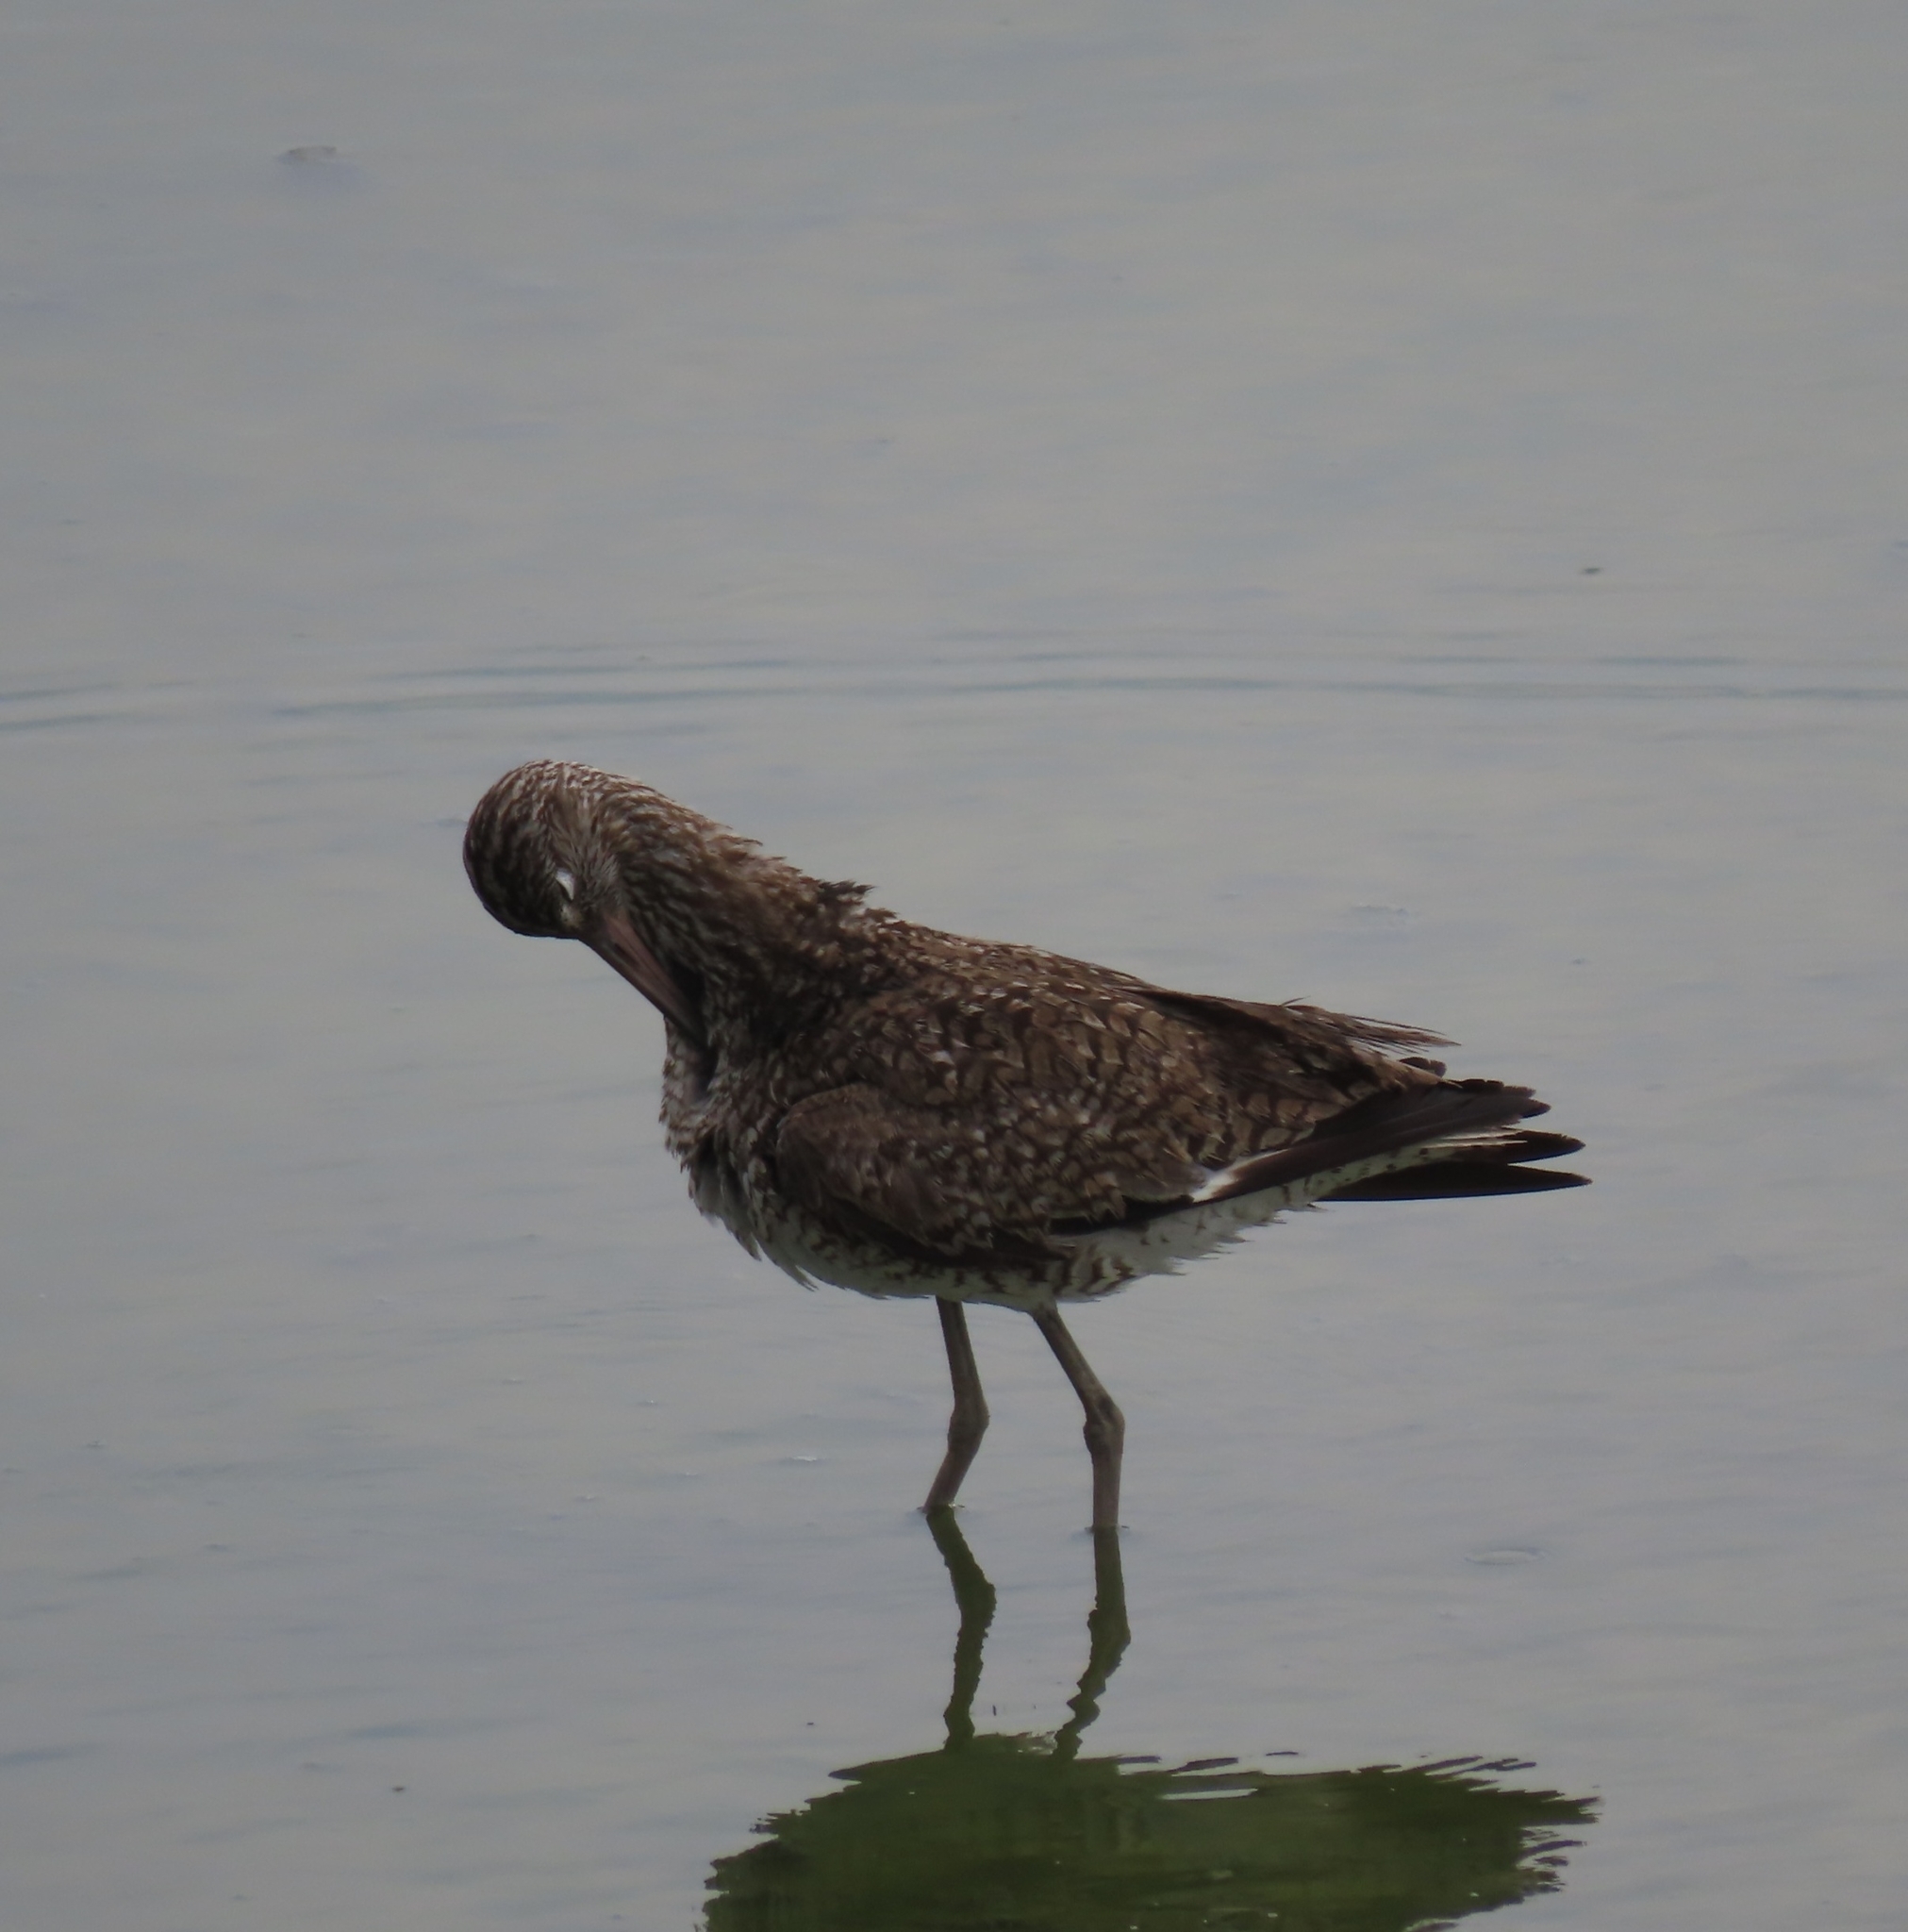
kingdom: Animalia
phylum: Chordata
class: Aves
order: Charadriiformes
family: Scolopacidae
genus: Tringa
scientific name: Tringa semipalmata
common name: Willet
